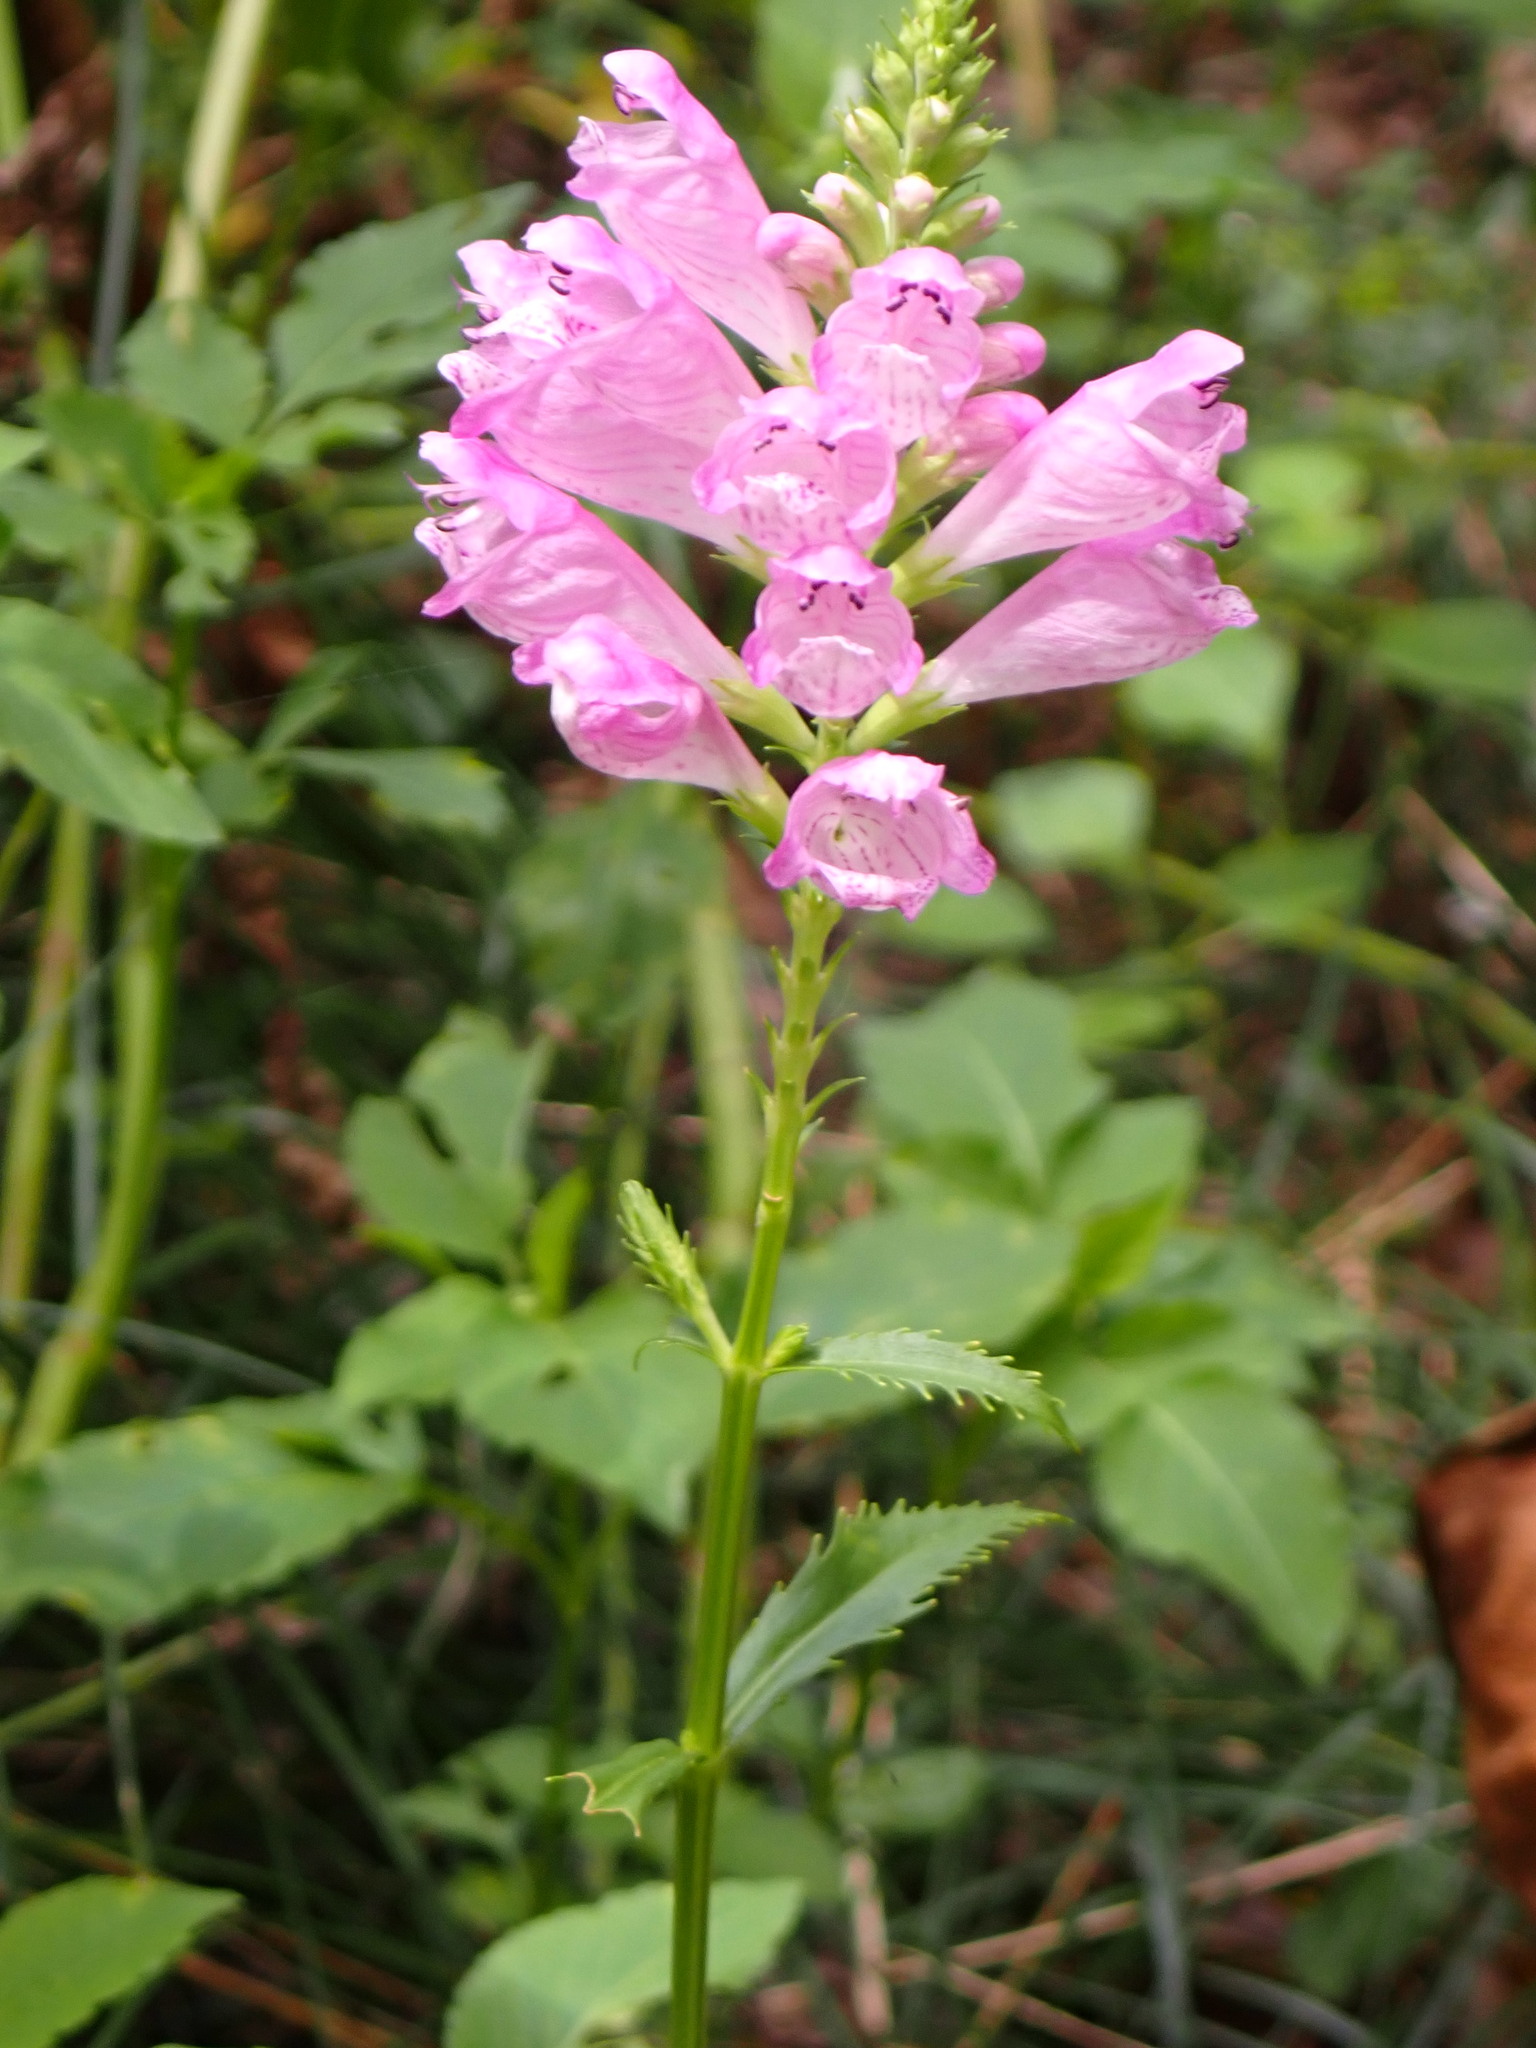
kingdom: Plantae
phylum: Tracheophyta
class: Magnoliopsida
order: Lamiales
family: Lamiaceae
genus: Physostegia
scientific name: Physostegia virginiana
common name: Obedient-plant
